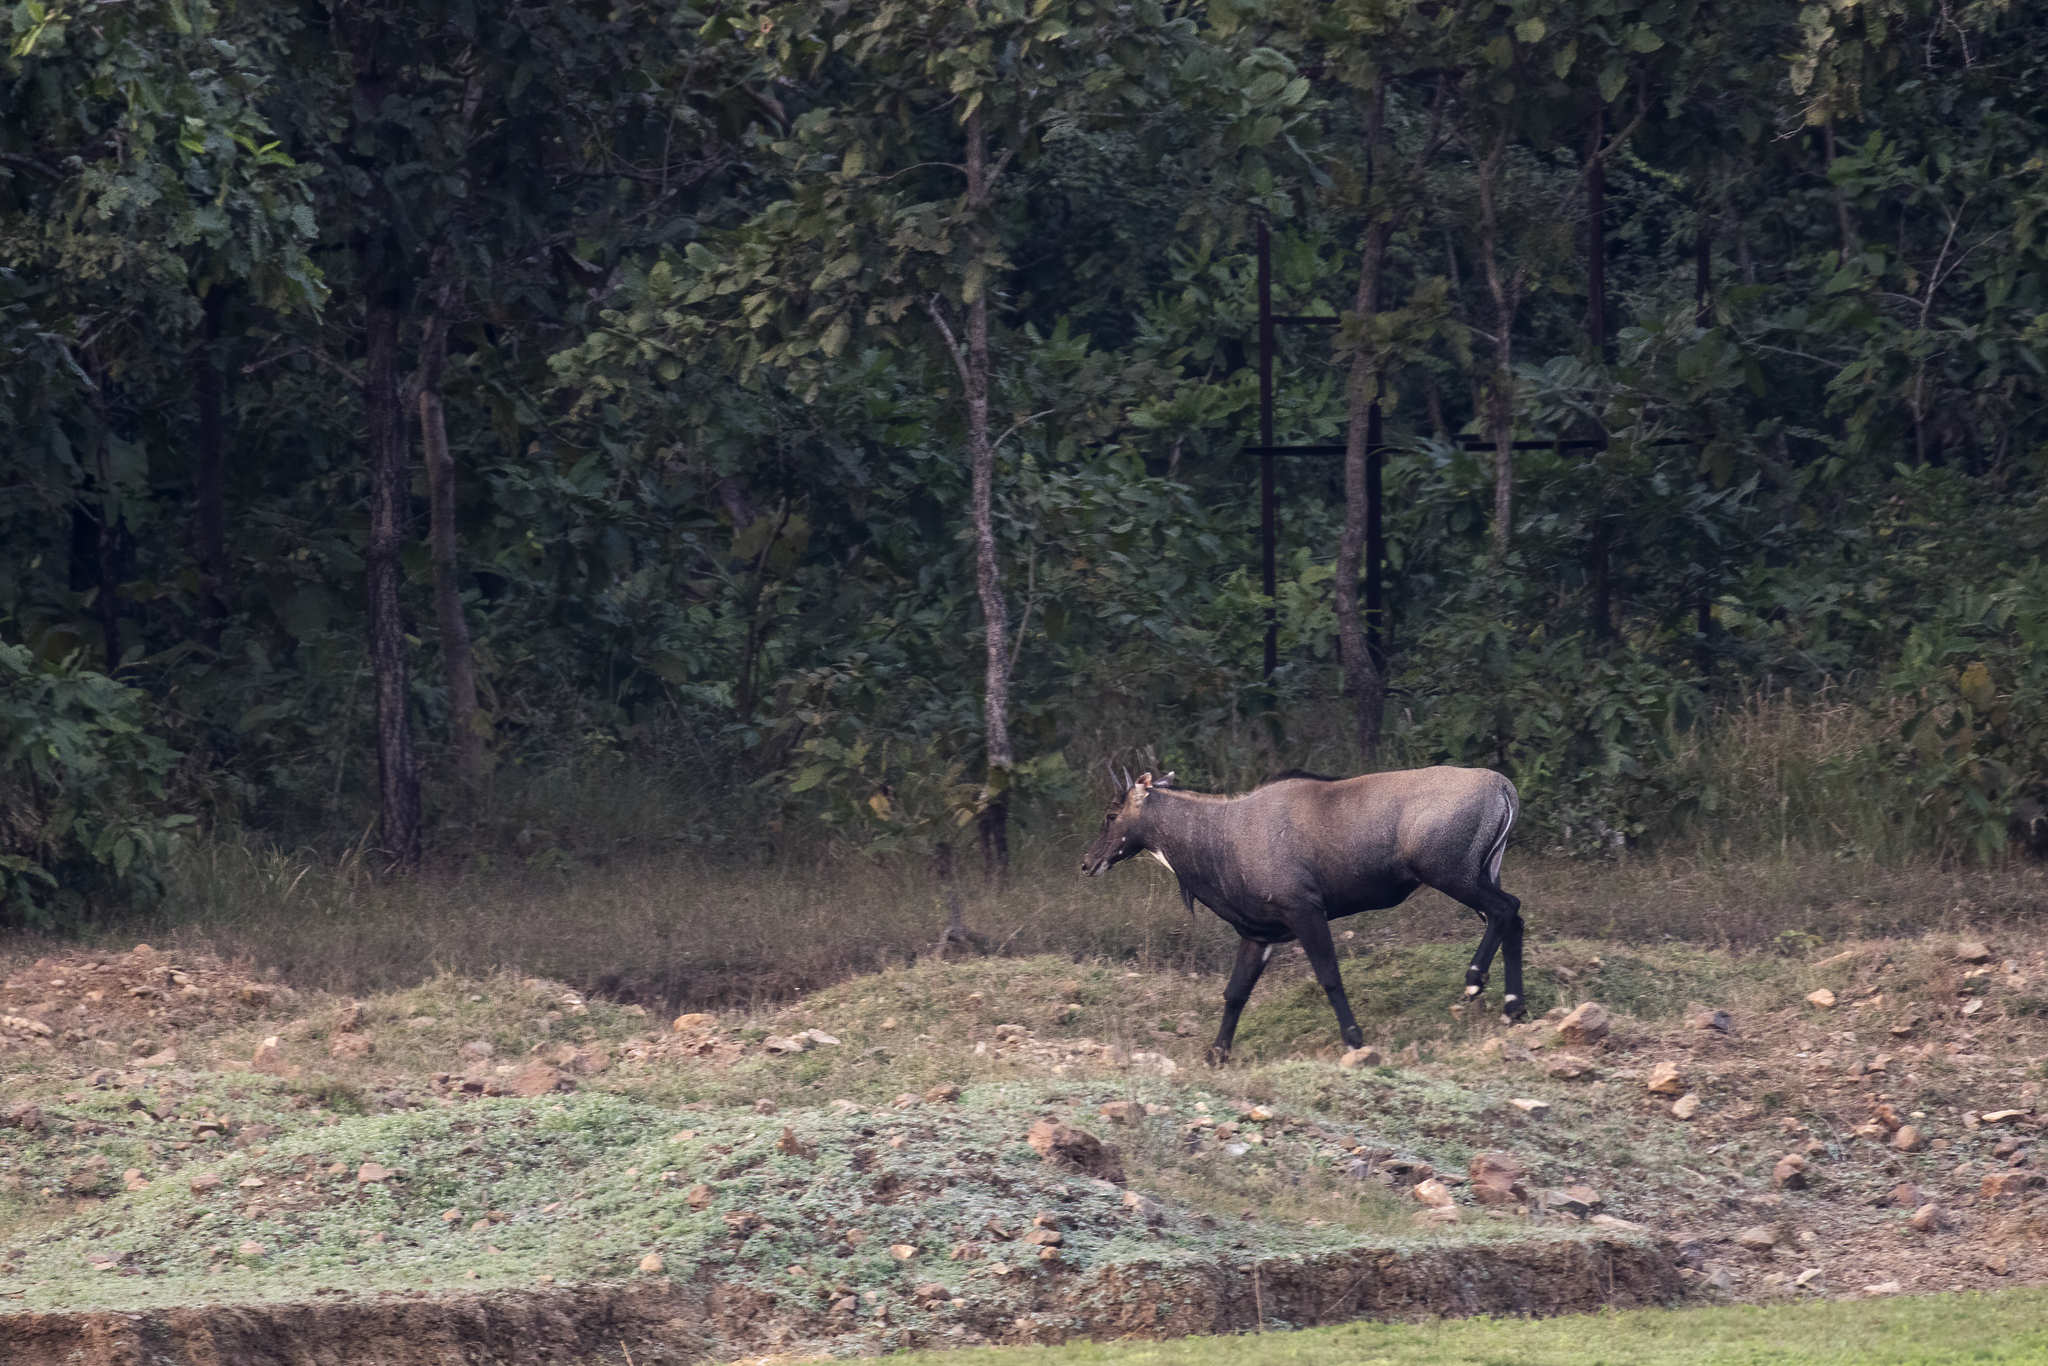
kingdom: Animalia
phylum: Chordata
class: Mammalia
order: Artiodactyla
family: Bovidae
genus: Boselaphus
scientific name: Boselaphus tragocamelus
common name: Nilgai
